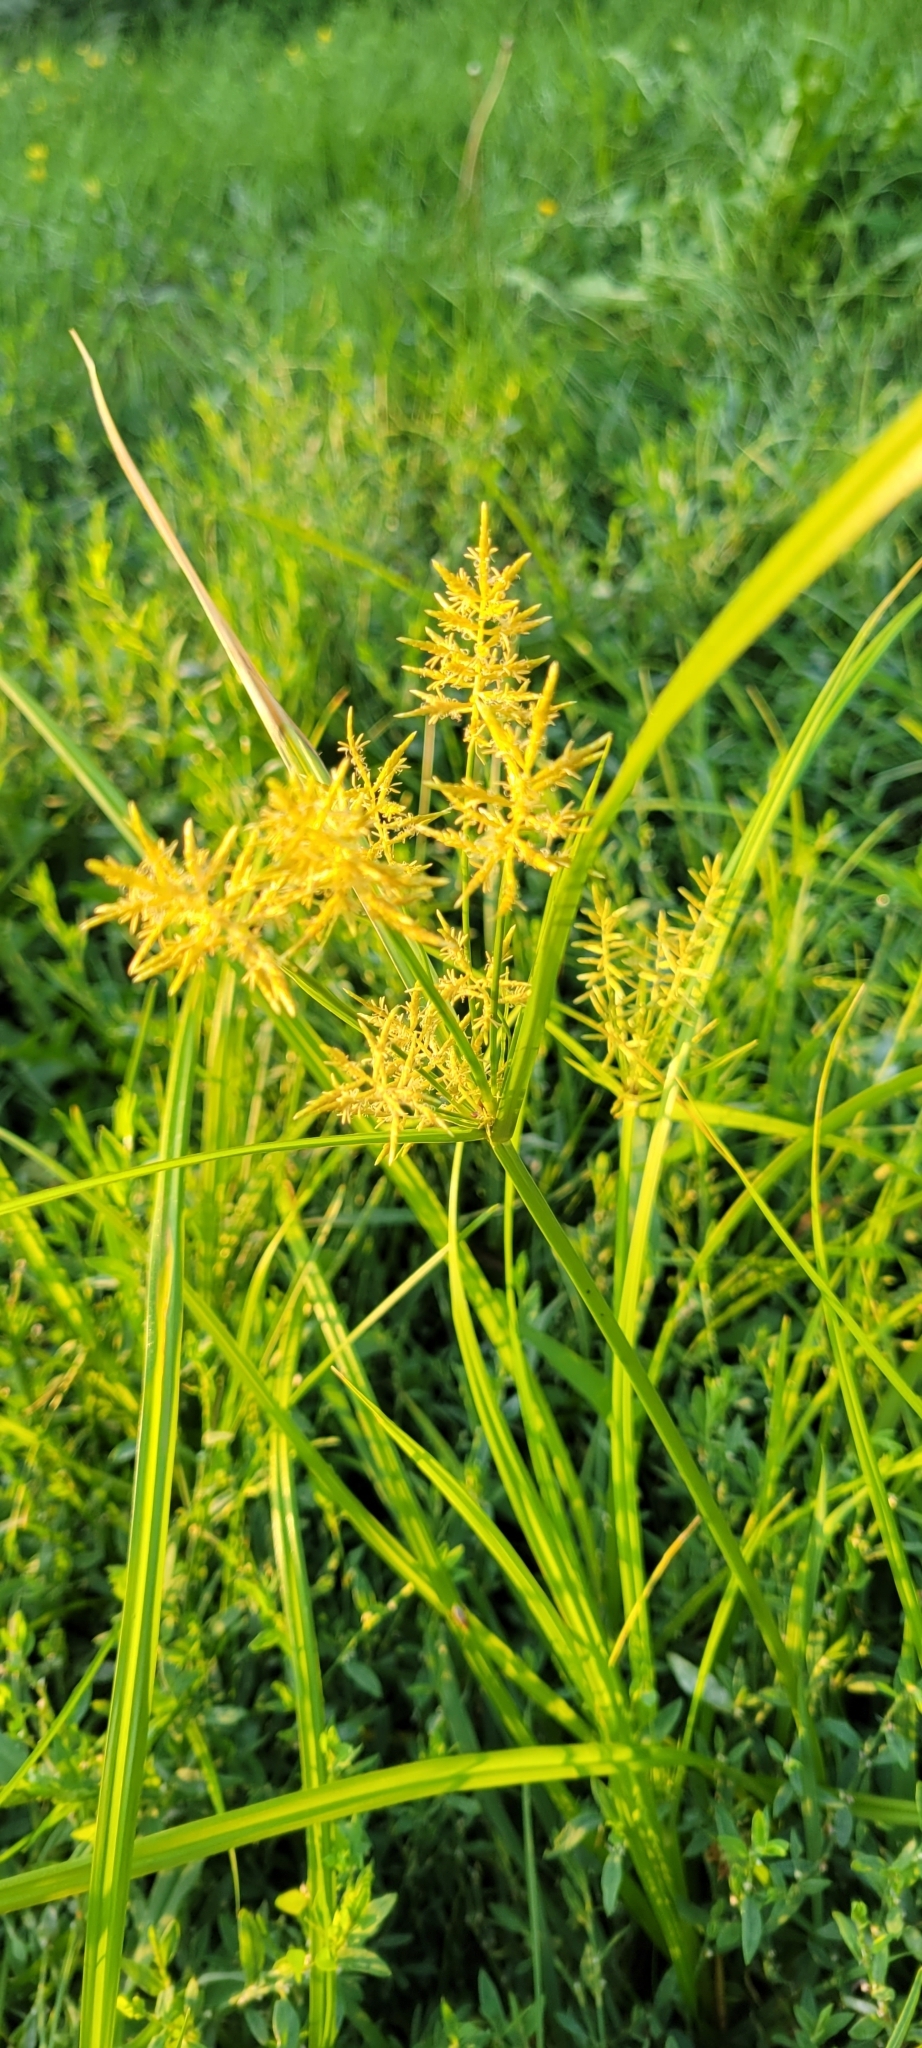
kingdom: Plantae
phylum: Tracheophyta
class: Liliopsida
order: Poales
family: Cyperaceae
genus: Cyperus
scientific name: Cyperus esculentus
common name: Yellow nutsedge
